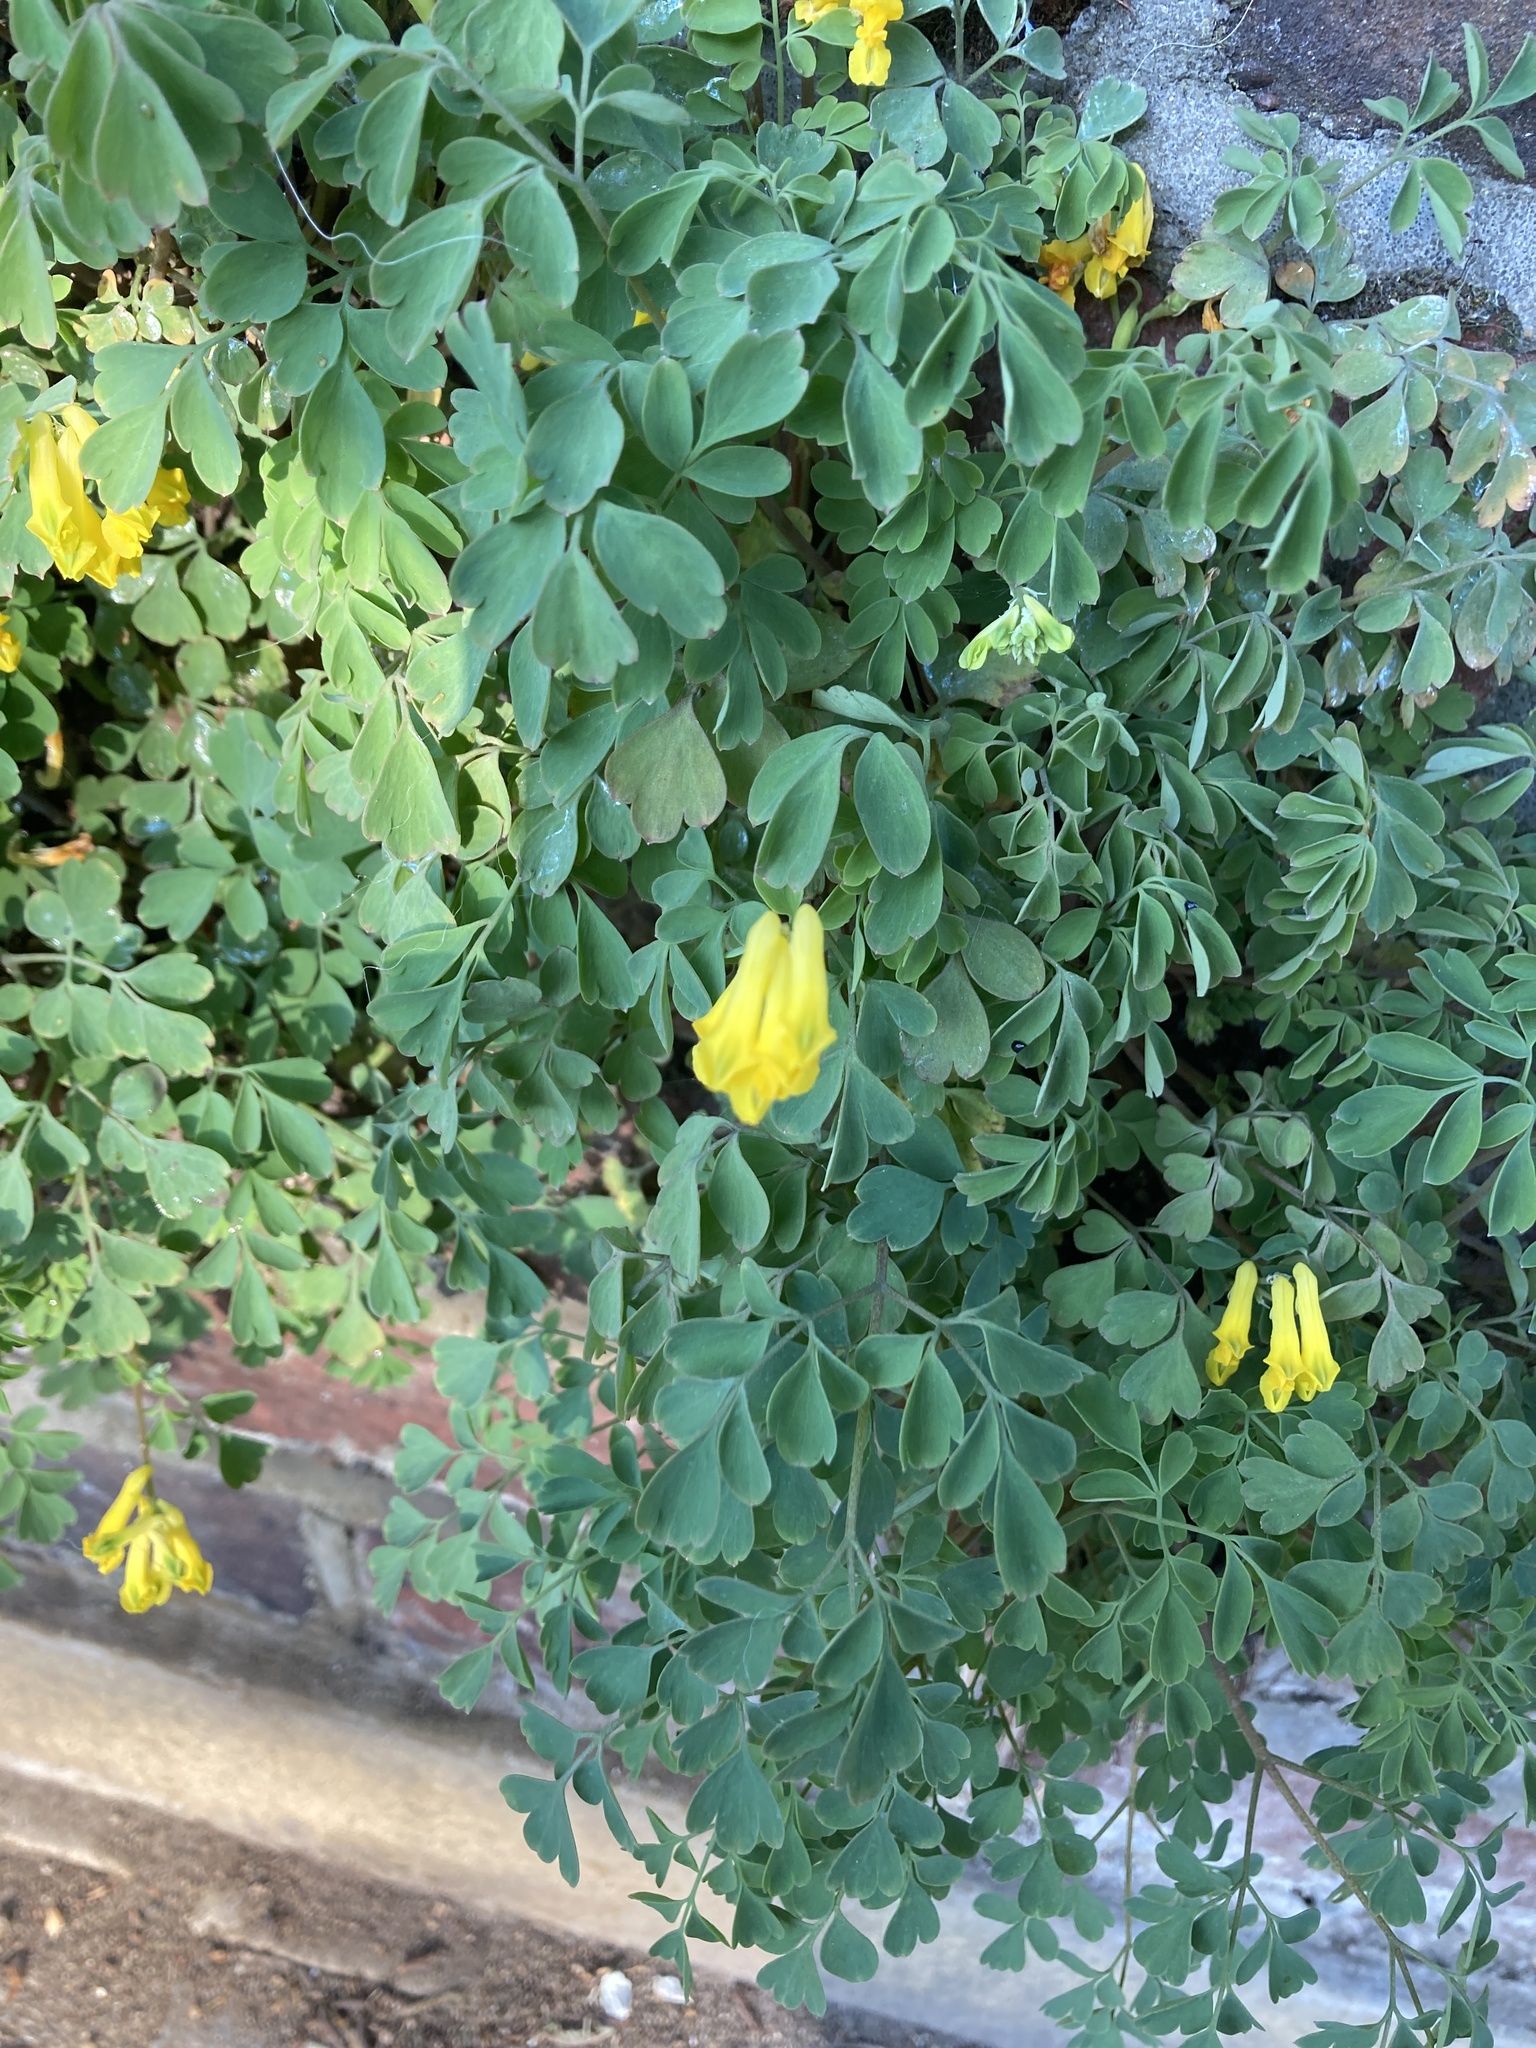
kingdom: Plantae
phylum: Tracheophyta
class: Magnoliopsida
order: Ranunculales
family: Papaveraceae
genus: Pseudofumaria
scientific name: Pseudofumaria lutea
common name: Yellow corydalis
